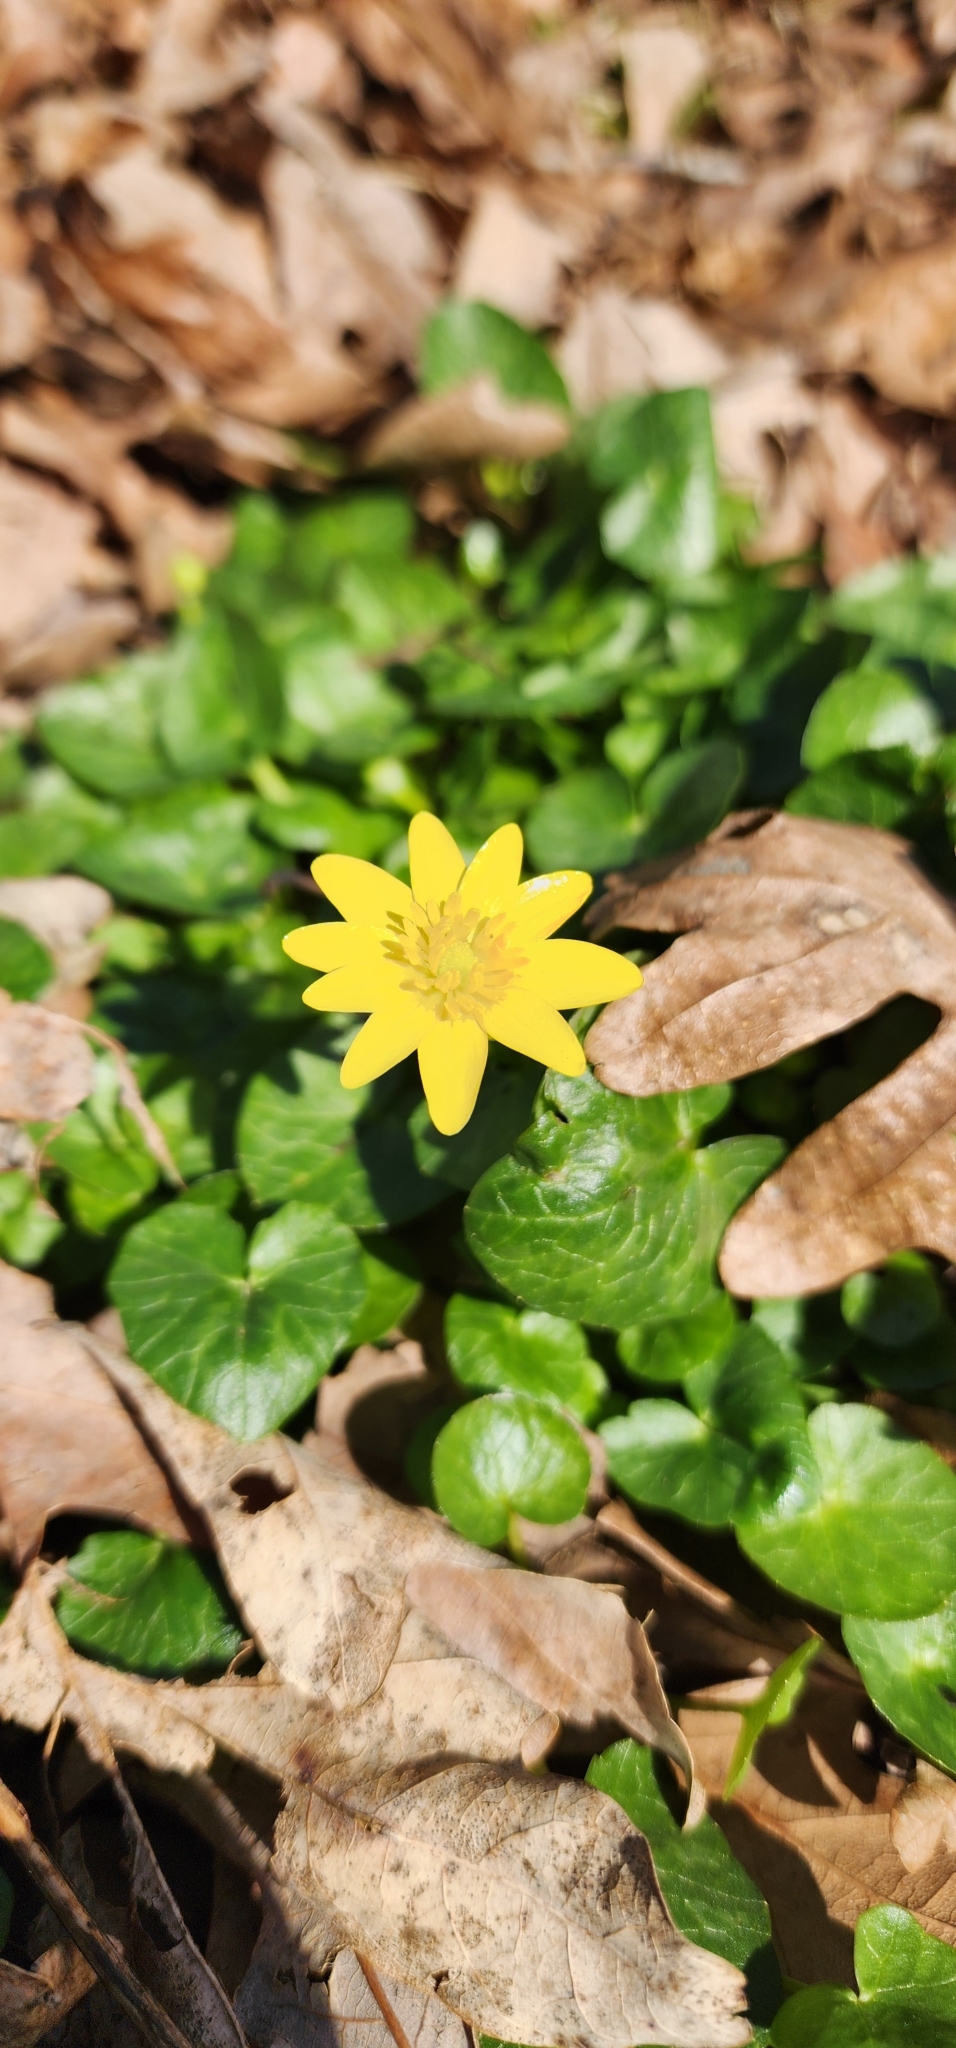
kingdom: Plantae
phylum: Tracheophyta
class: Magnoliopsida
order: Ranunculales
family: Ranunculaceae
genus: Ficaria
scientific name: Ficaria verna
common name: Lesser celandine
